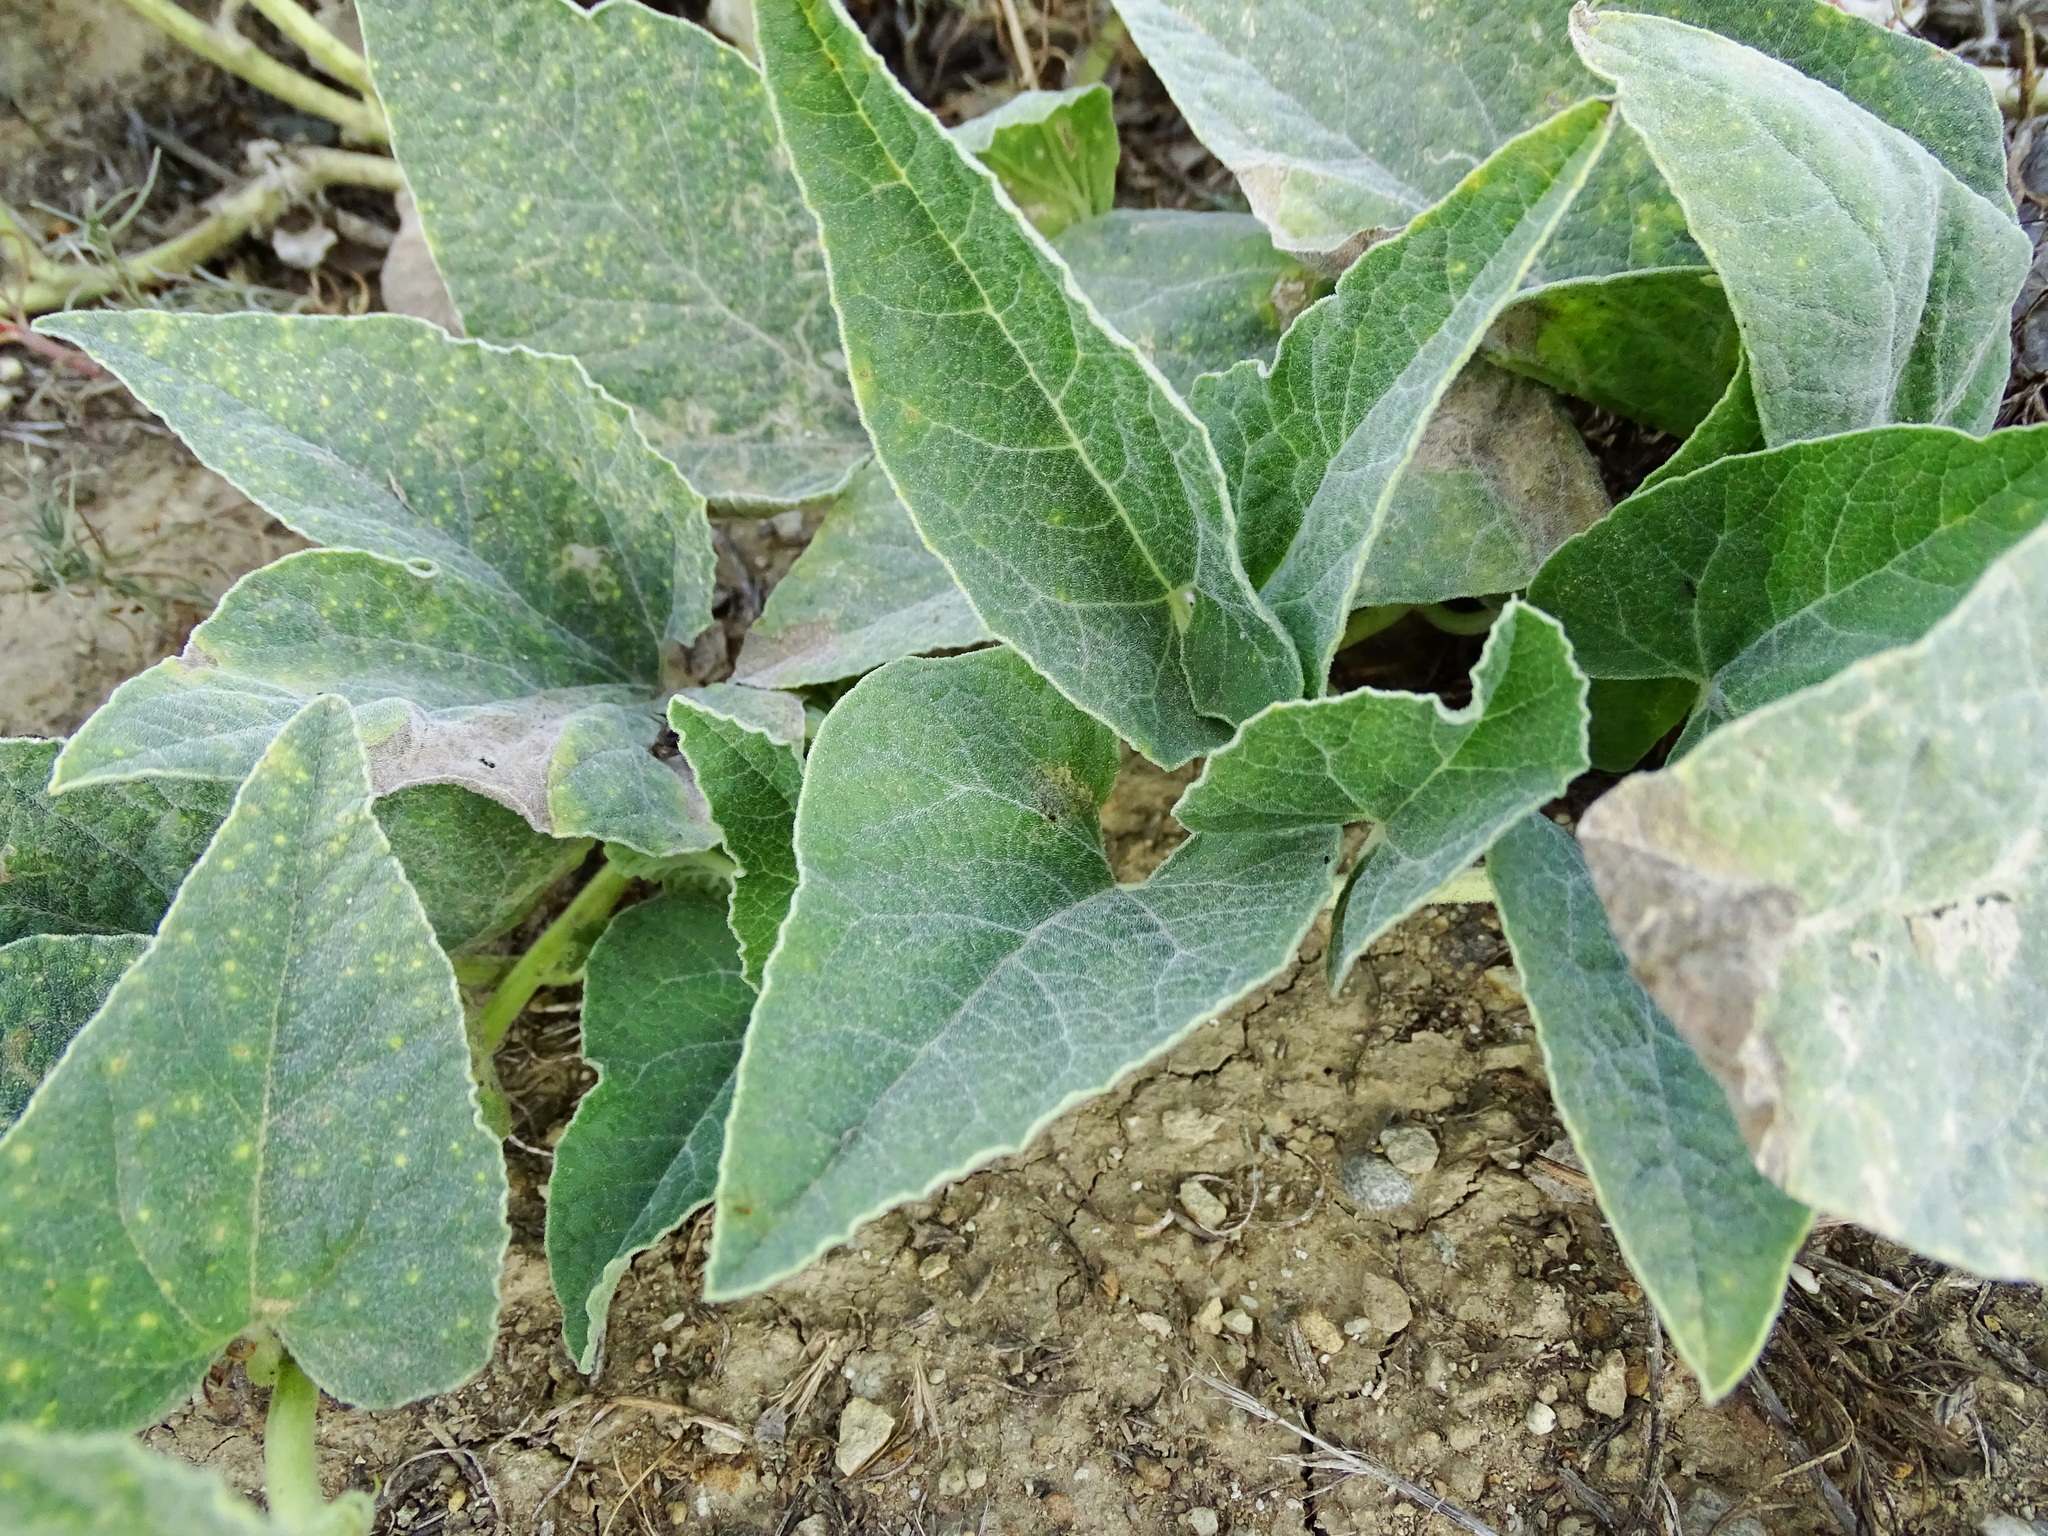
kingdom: Plantae
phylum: Tracheophyta
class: Magnoliopsida
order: Cucurbitales
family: Cucurbitaceae
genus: Cucurbita
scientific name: Cucurbita foetidissima
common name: Buffalo gourd
